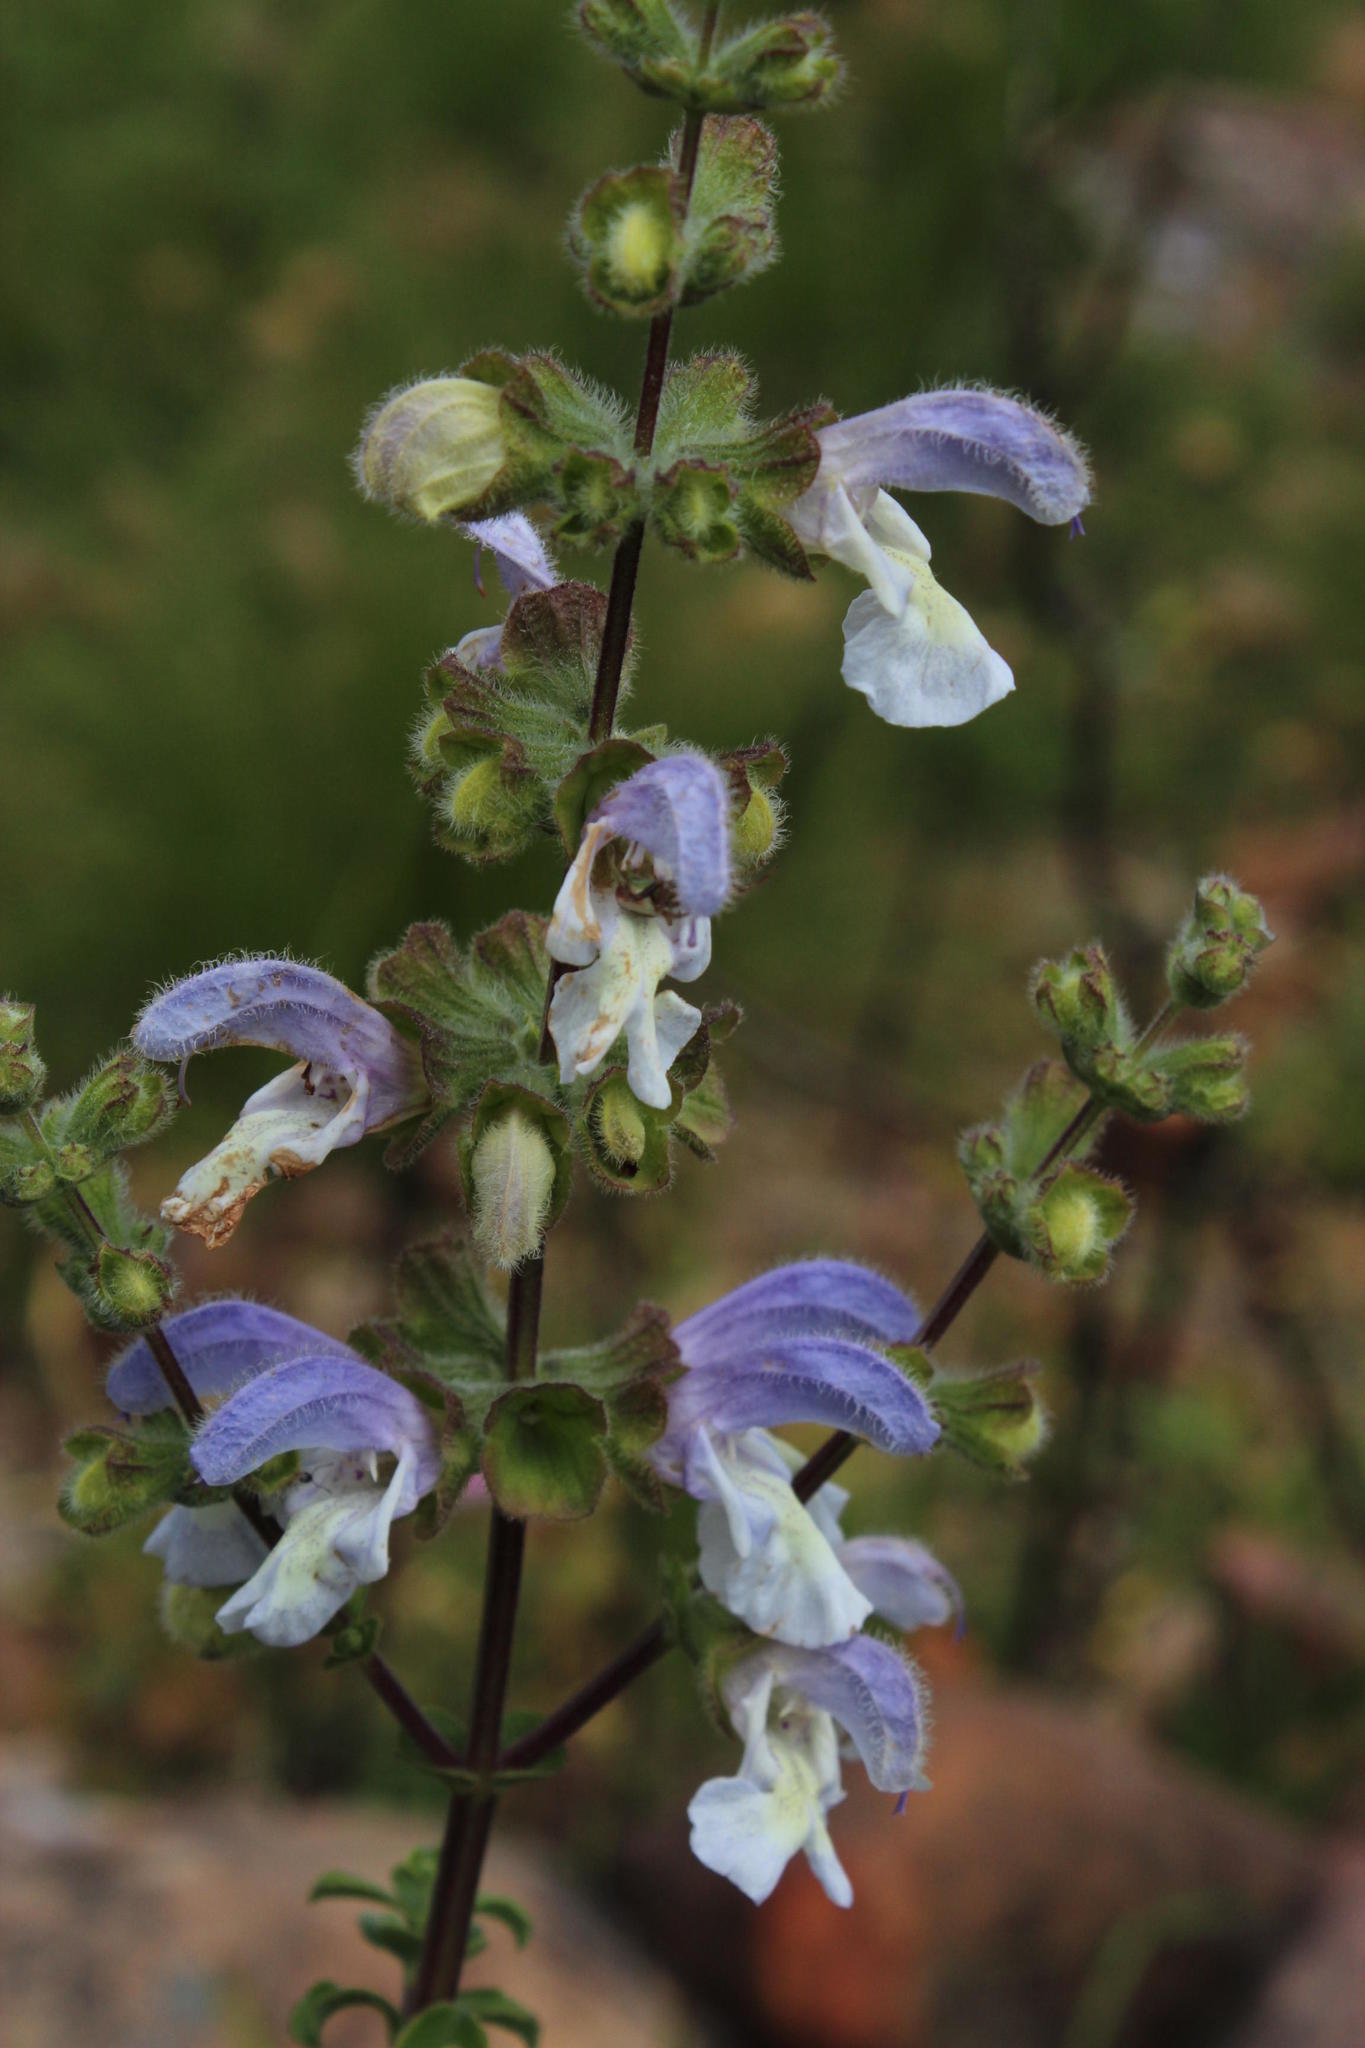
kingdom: Plantae
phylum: Tracheophyta
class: Magnoliopsida
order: Lamiales
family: Lamiaceae
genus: Salvia
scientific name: Salvia chamelaeagnea
